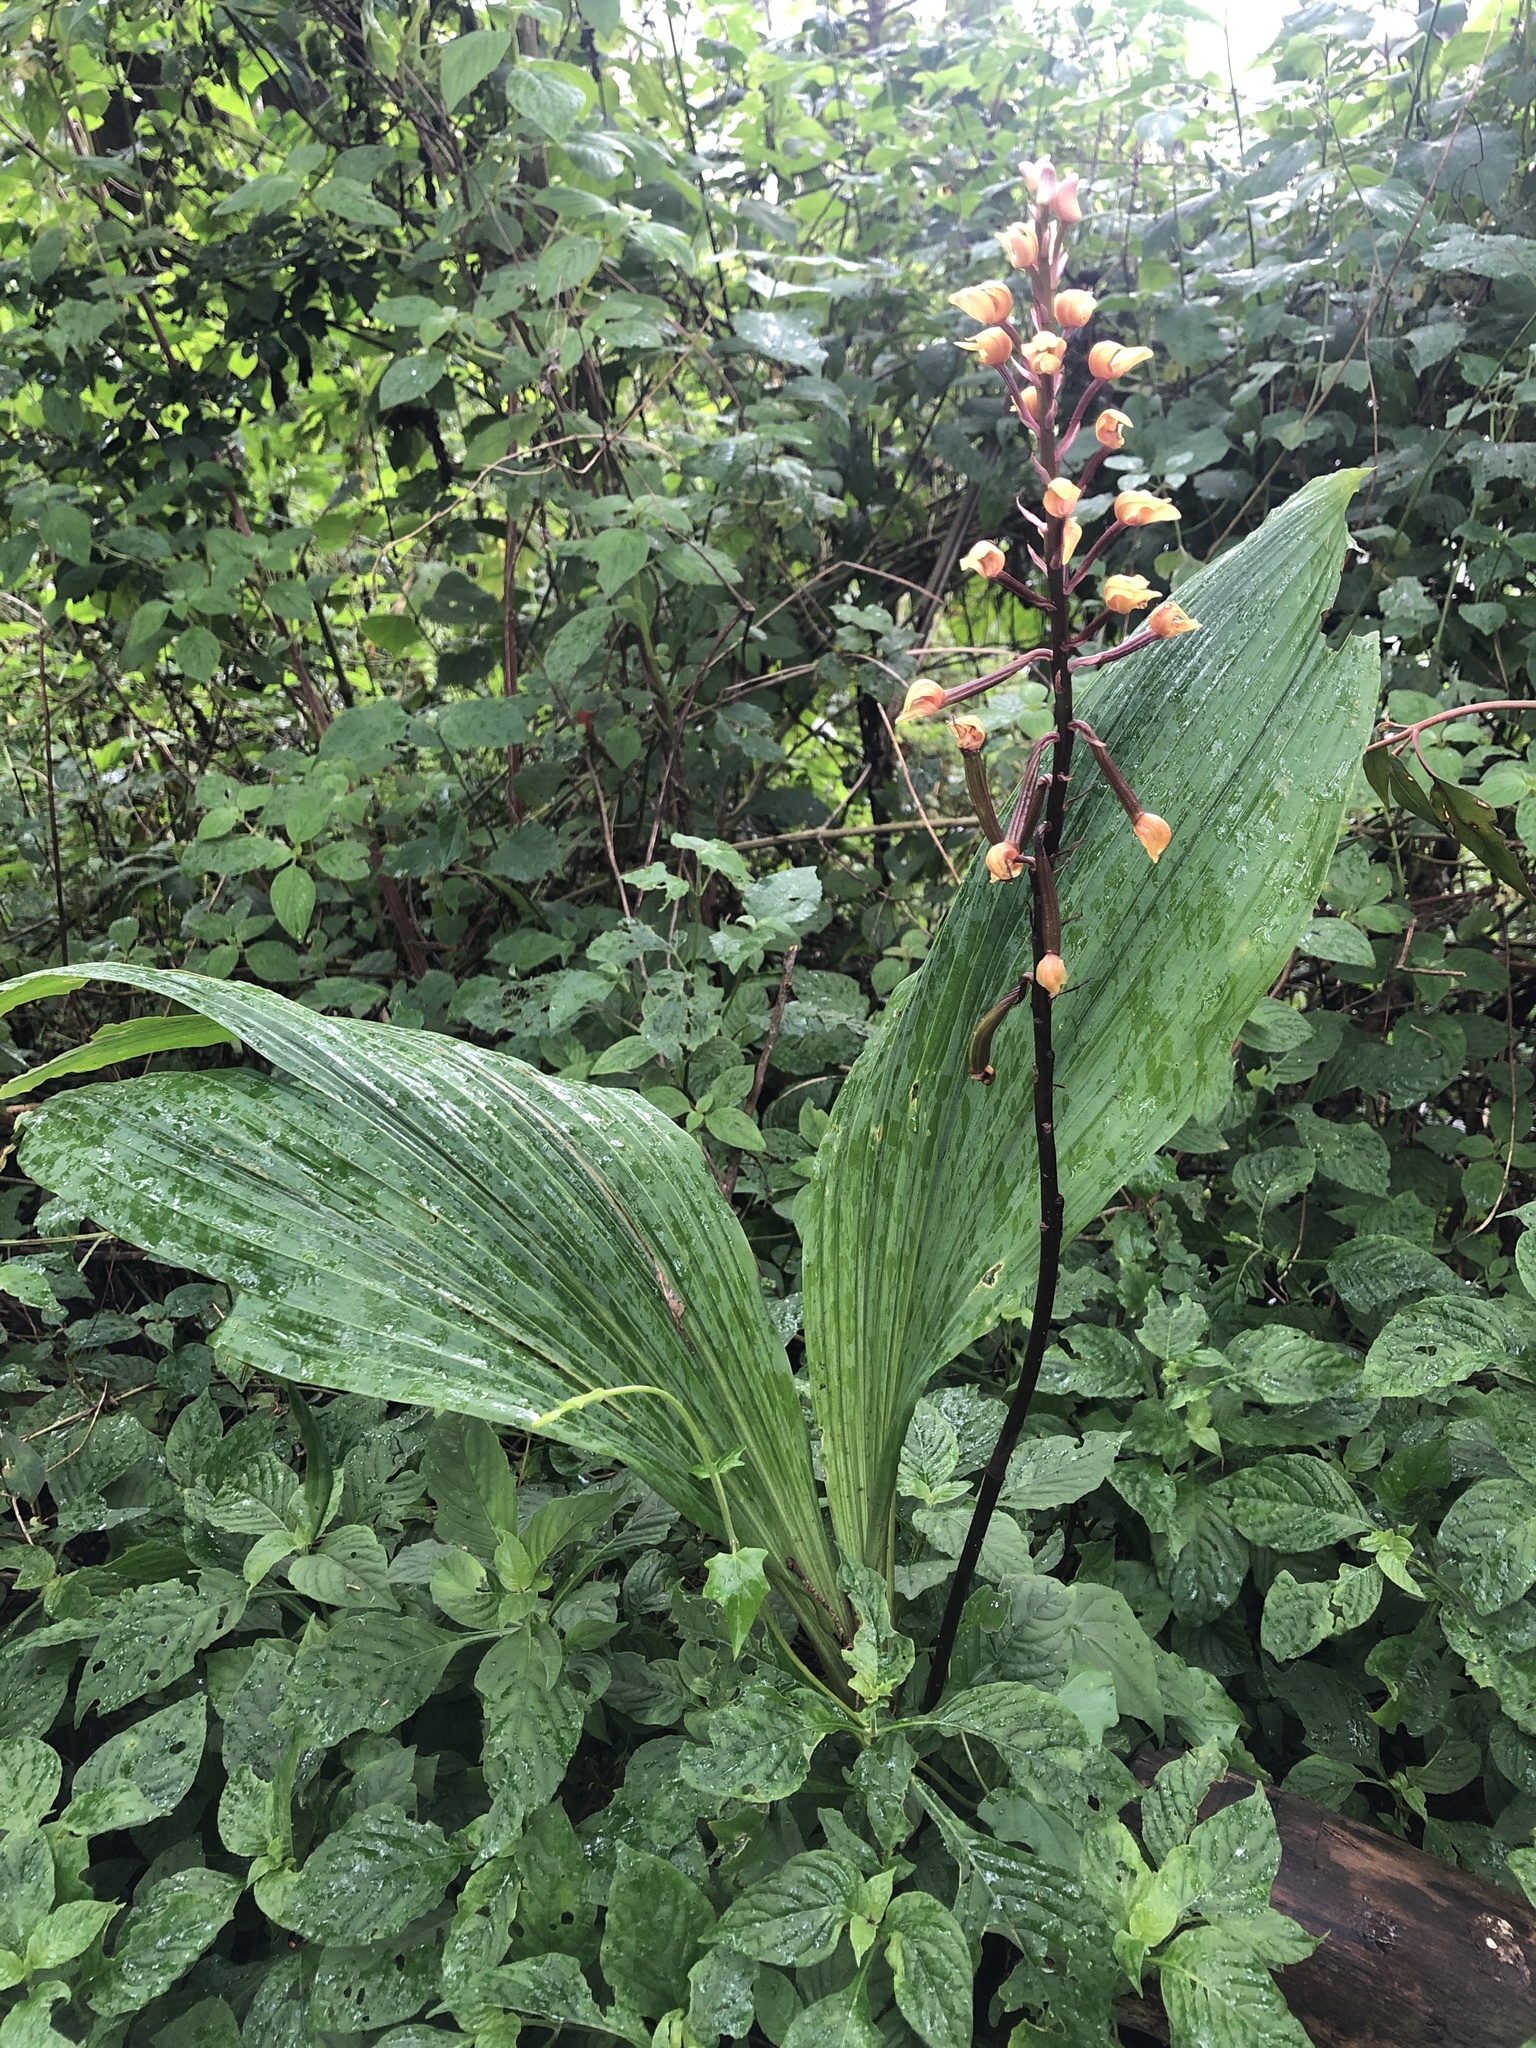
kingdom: Plantae
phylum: Tracheophyta
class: Liliopsida
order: Asparagales
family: Orchidaceae
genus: Govenia
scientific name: Govenia matudae
